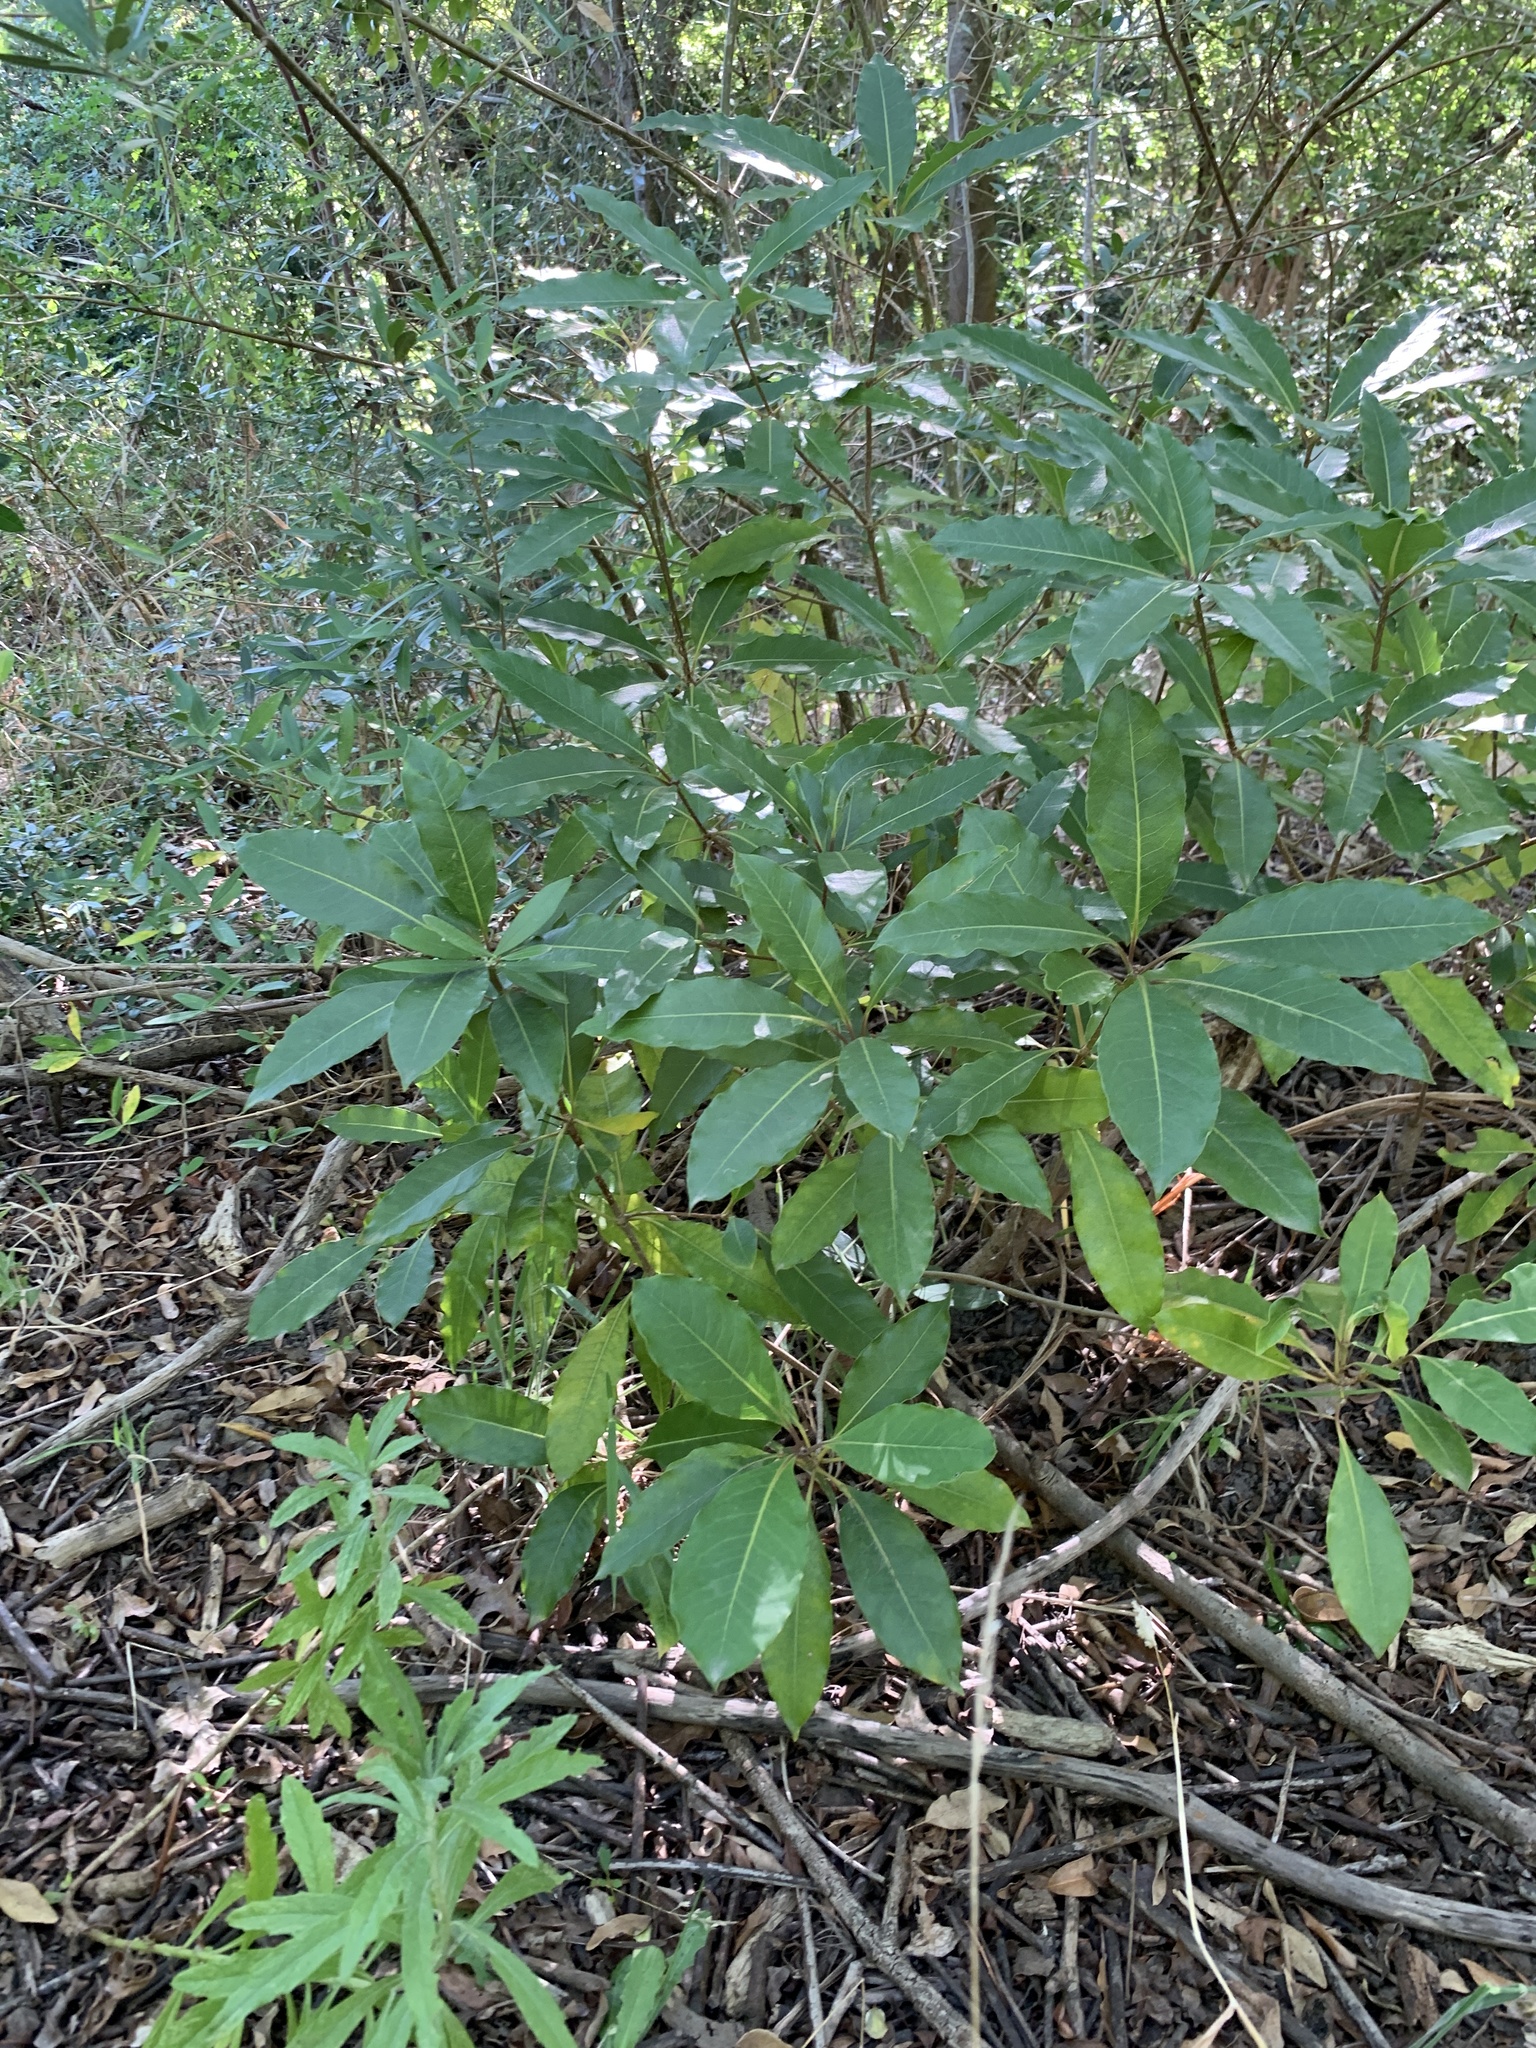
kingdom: Plantae
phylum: Tracheophyta
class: Magnoliopsida
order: Apiales
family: Pittosporaceae
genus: Pittosporum
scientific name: Pittosporum undulatum
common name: Australian cheesewood
